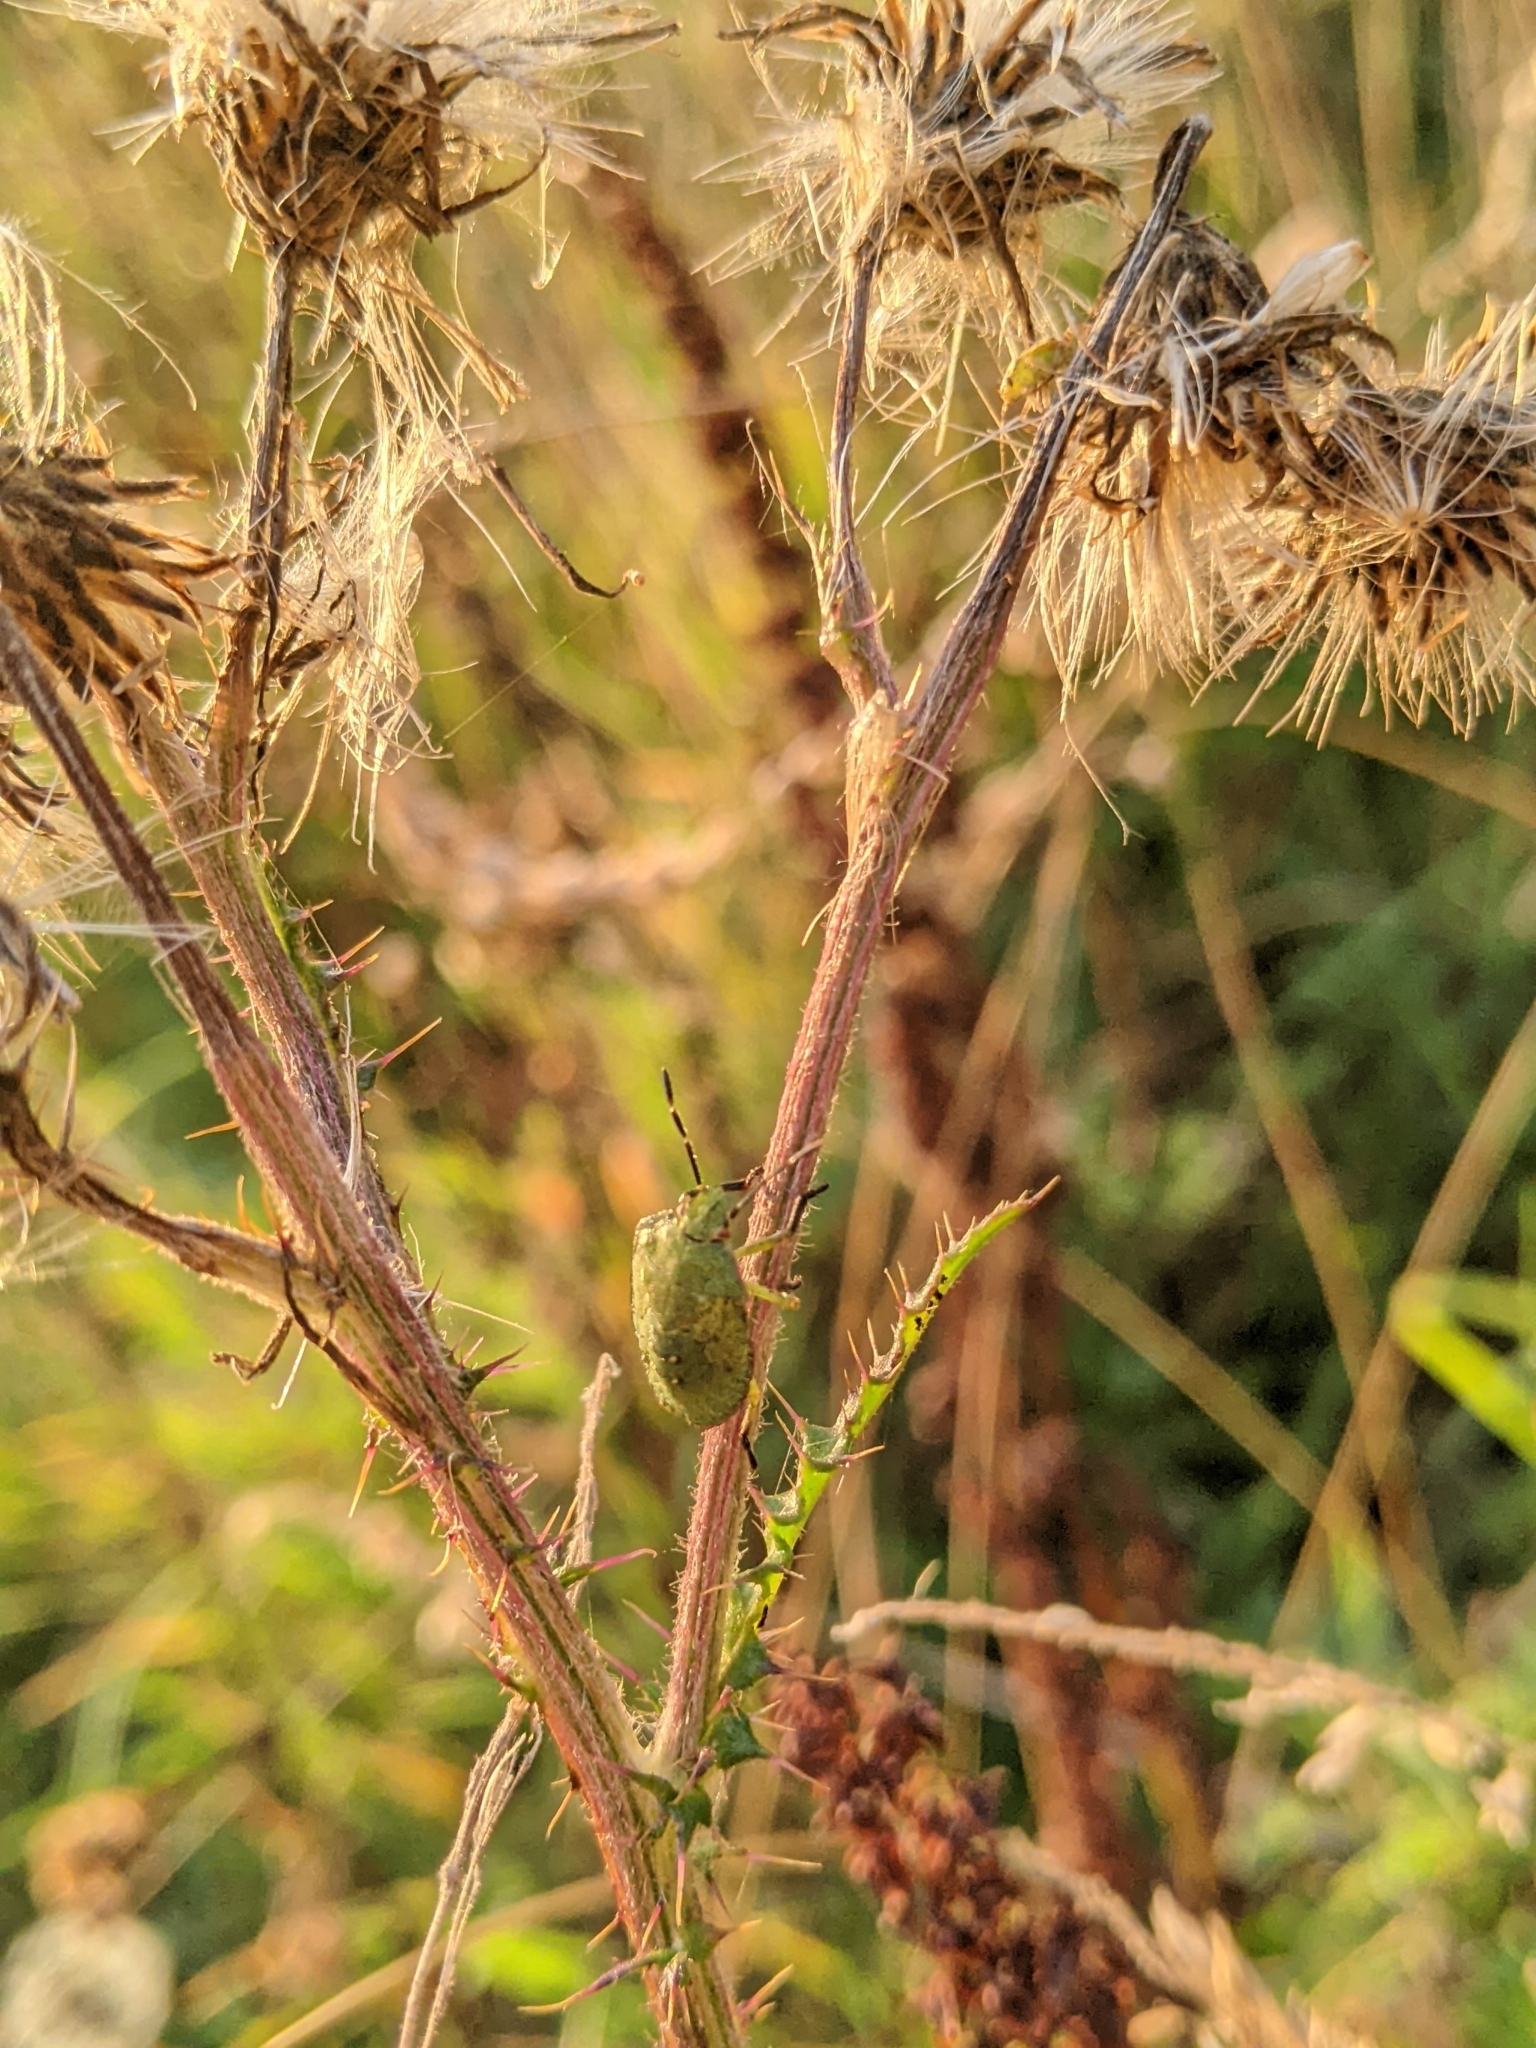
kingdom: Animalia
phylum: Arthropoda
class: Insecta
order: Hemiptera
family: Pentatomidae
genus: Palomena
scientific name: Palomena prasina
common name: Green shieldbug
